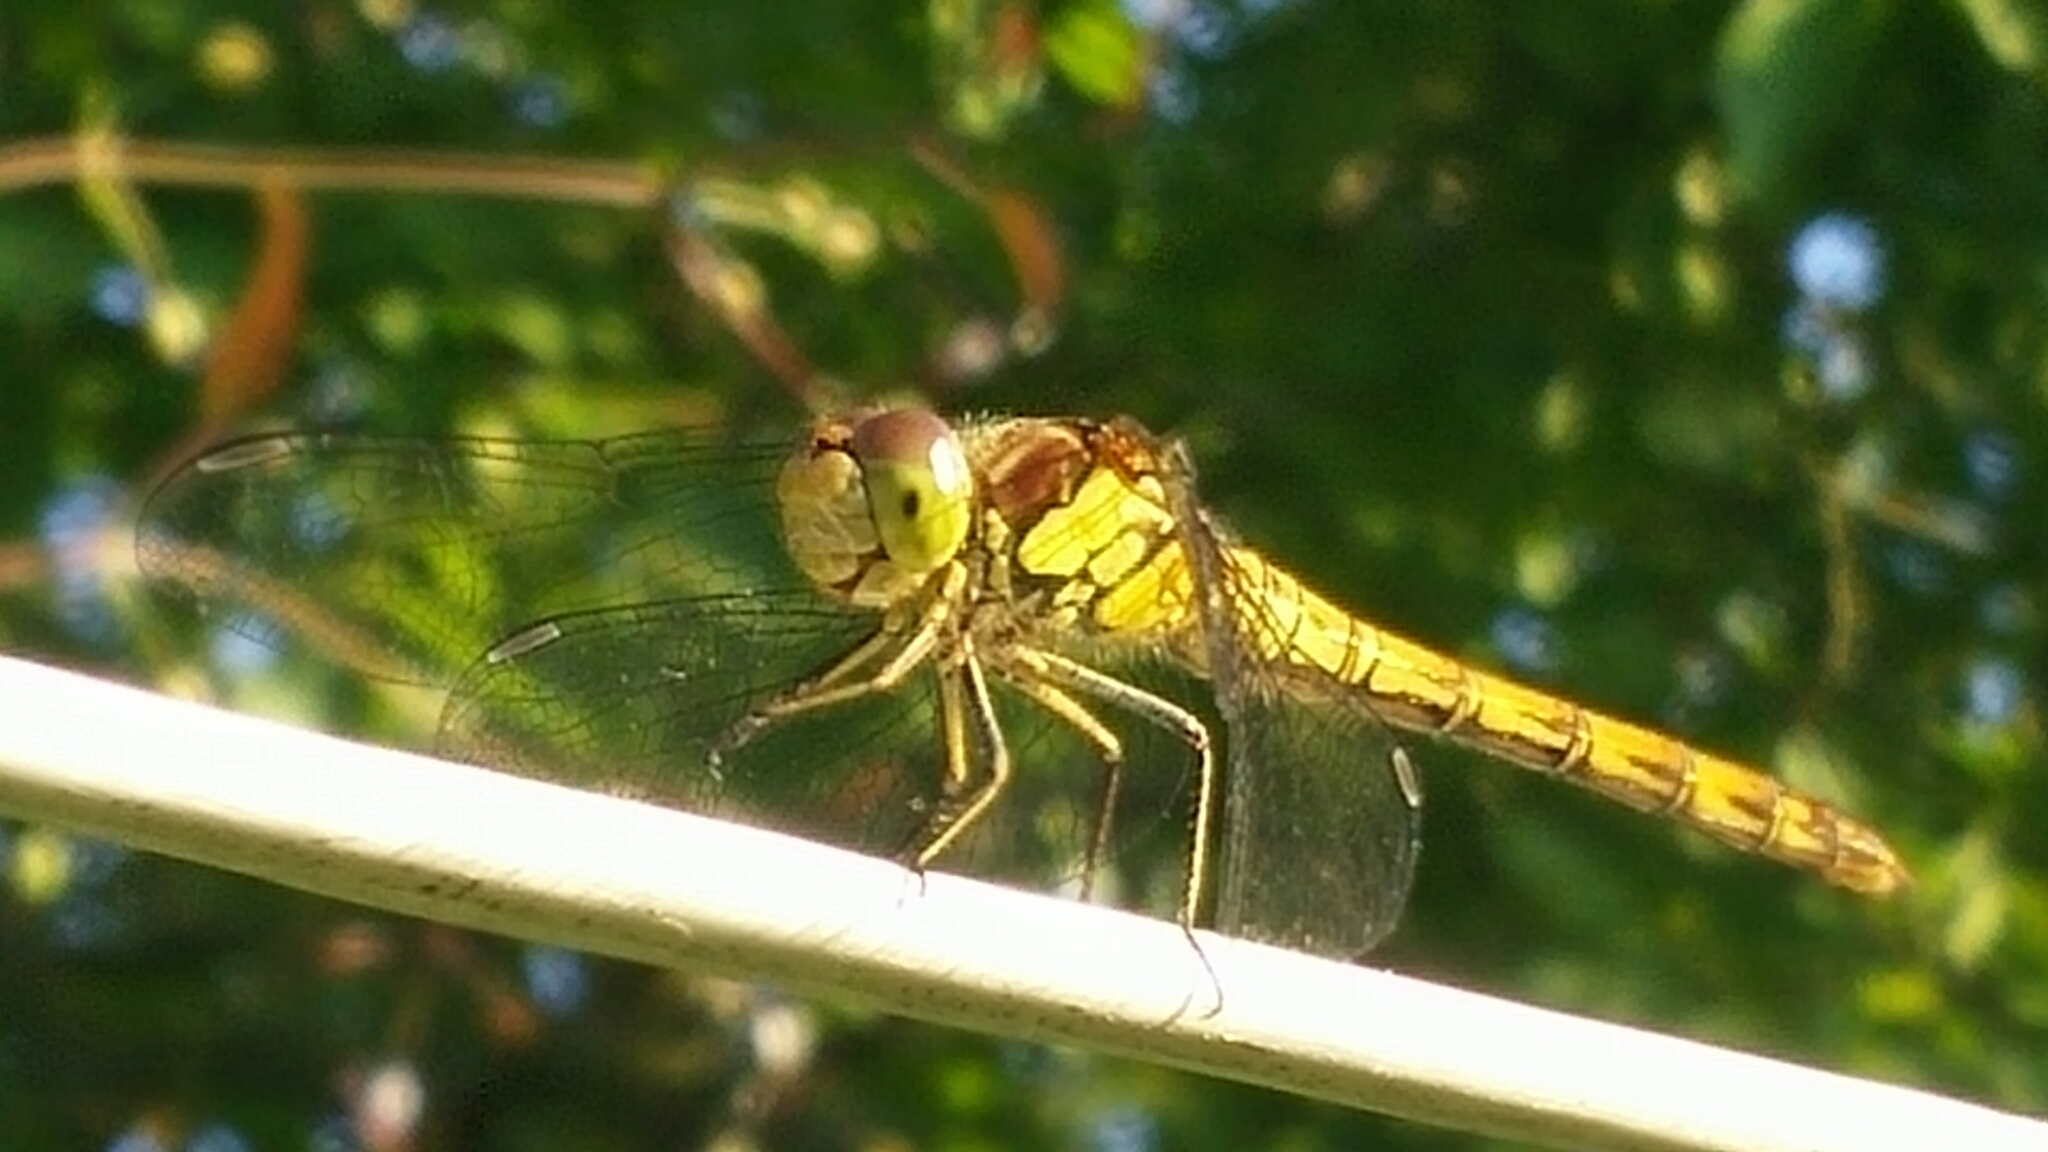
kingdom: Animalia
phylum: Arthropoda
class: Insecta
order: Odonata
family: Libellulidae
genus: Sympetrum
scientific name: Sympetrum striolatum
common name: Common darter
